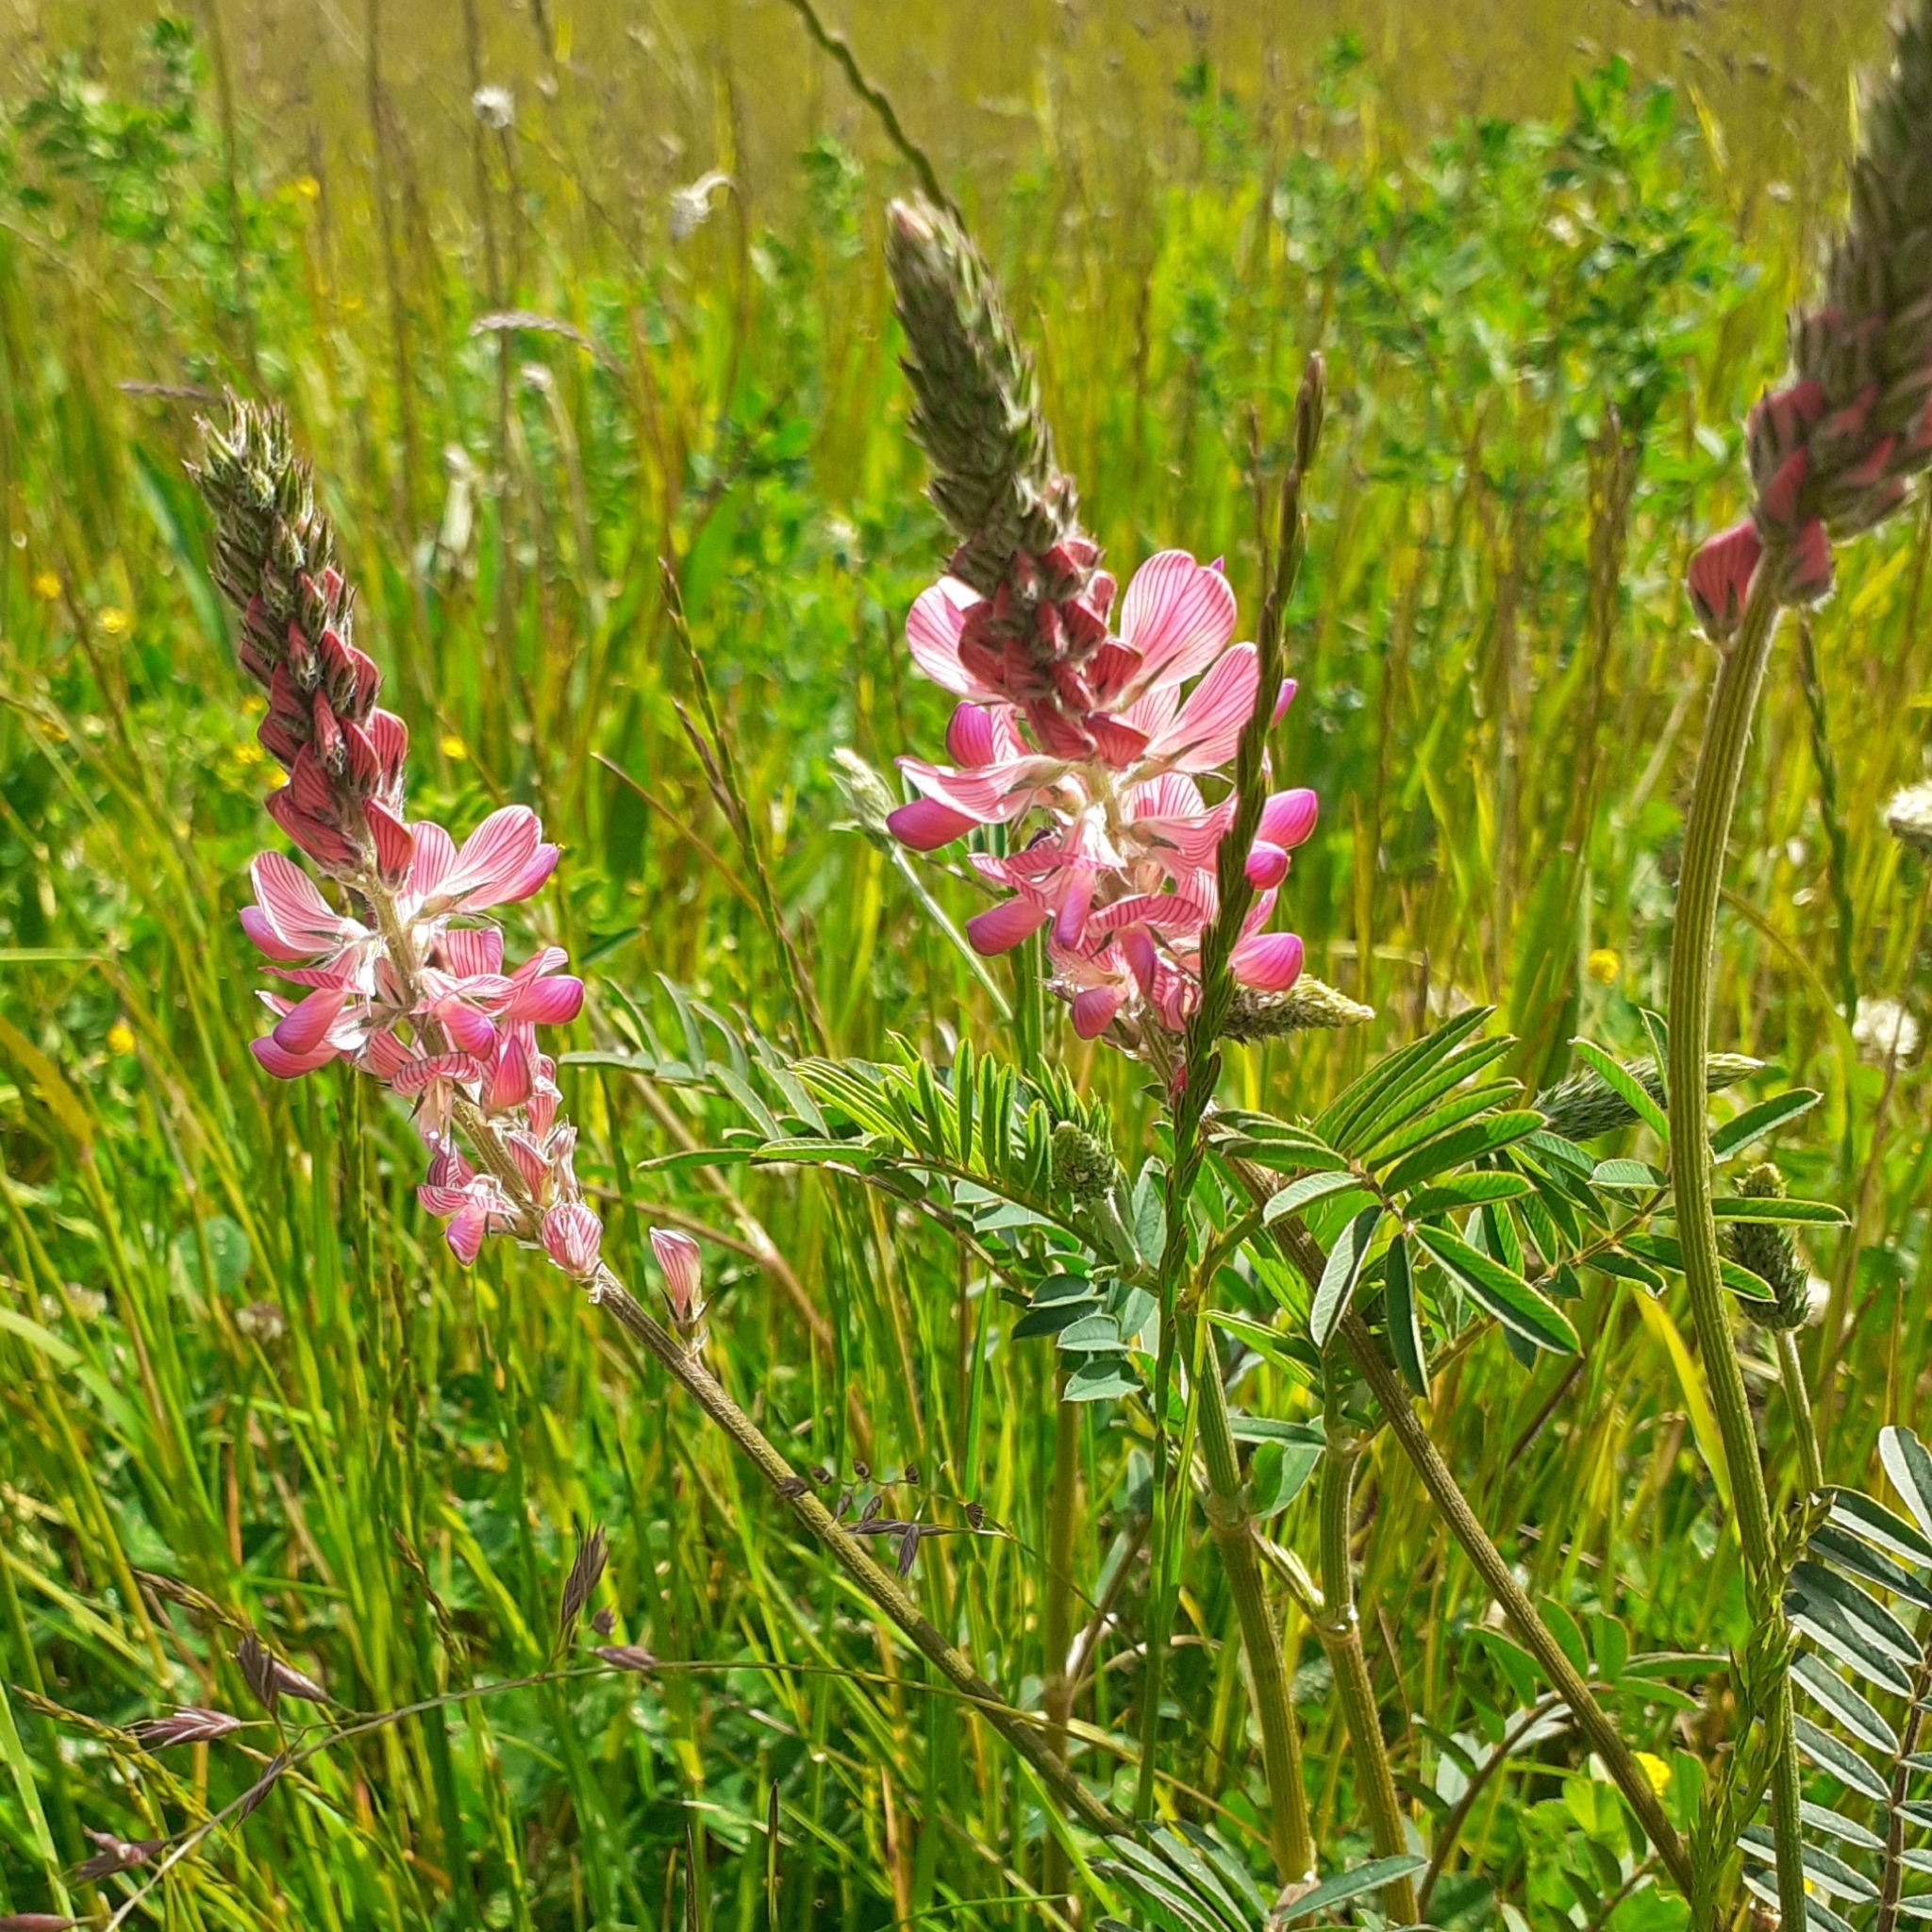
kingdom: Plantae
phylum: Tracheophyta
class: Magnoliopsida
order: Fabales
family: Fabaceae
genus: Onobrychis
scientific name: Onobrychis viciifolia
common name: Sainfoin
